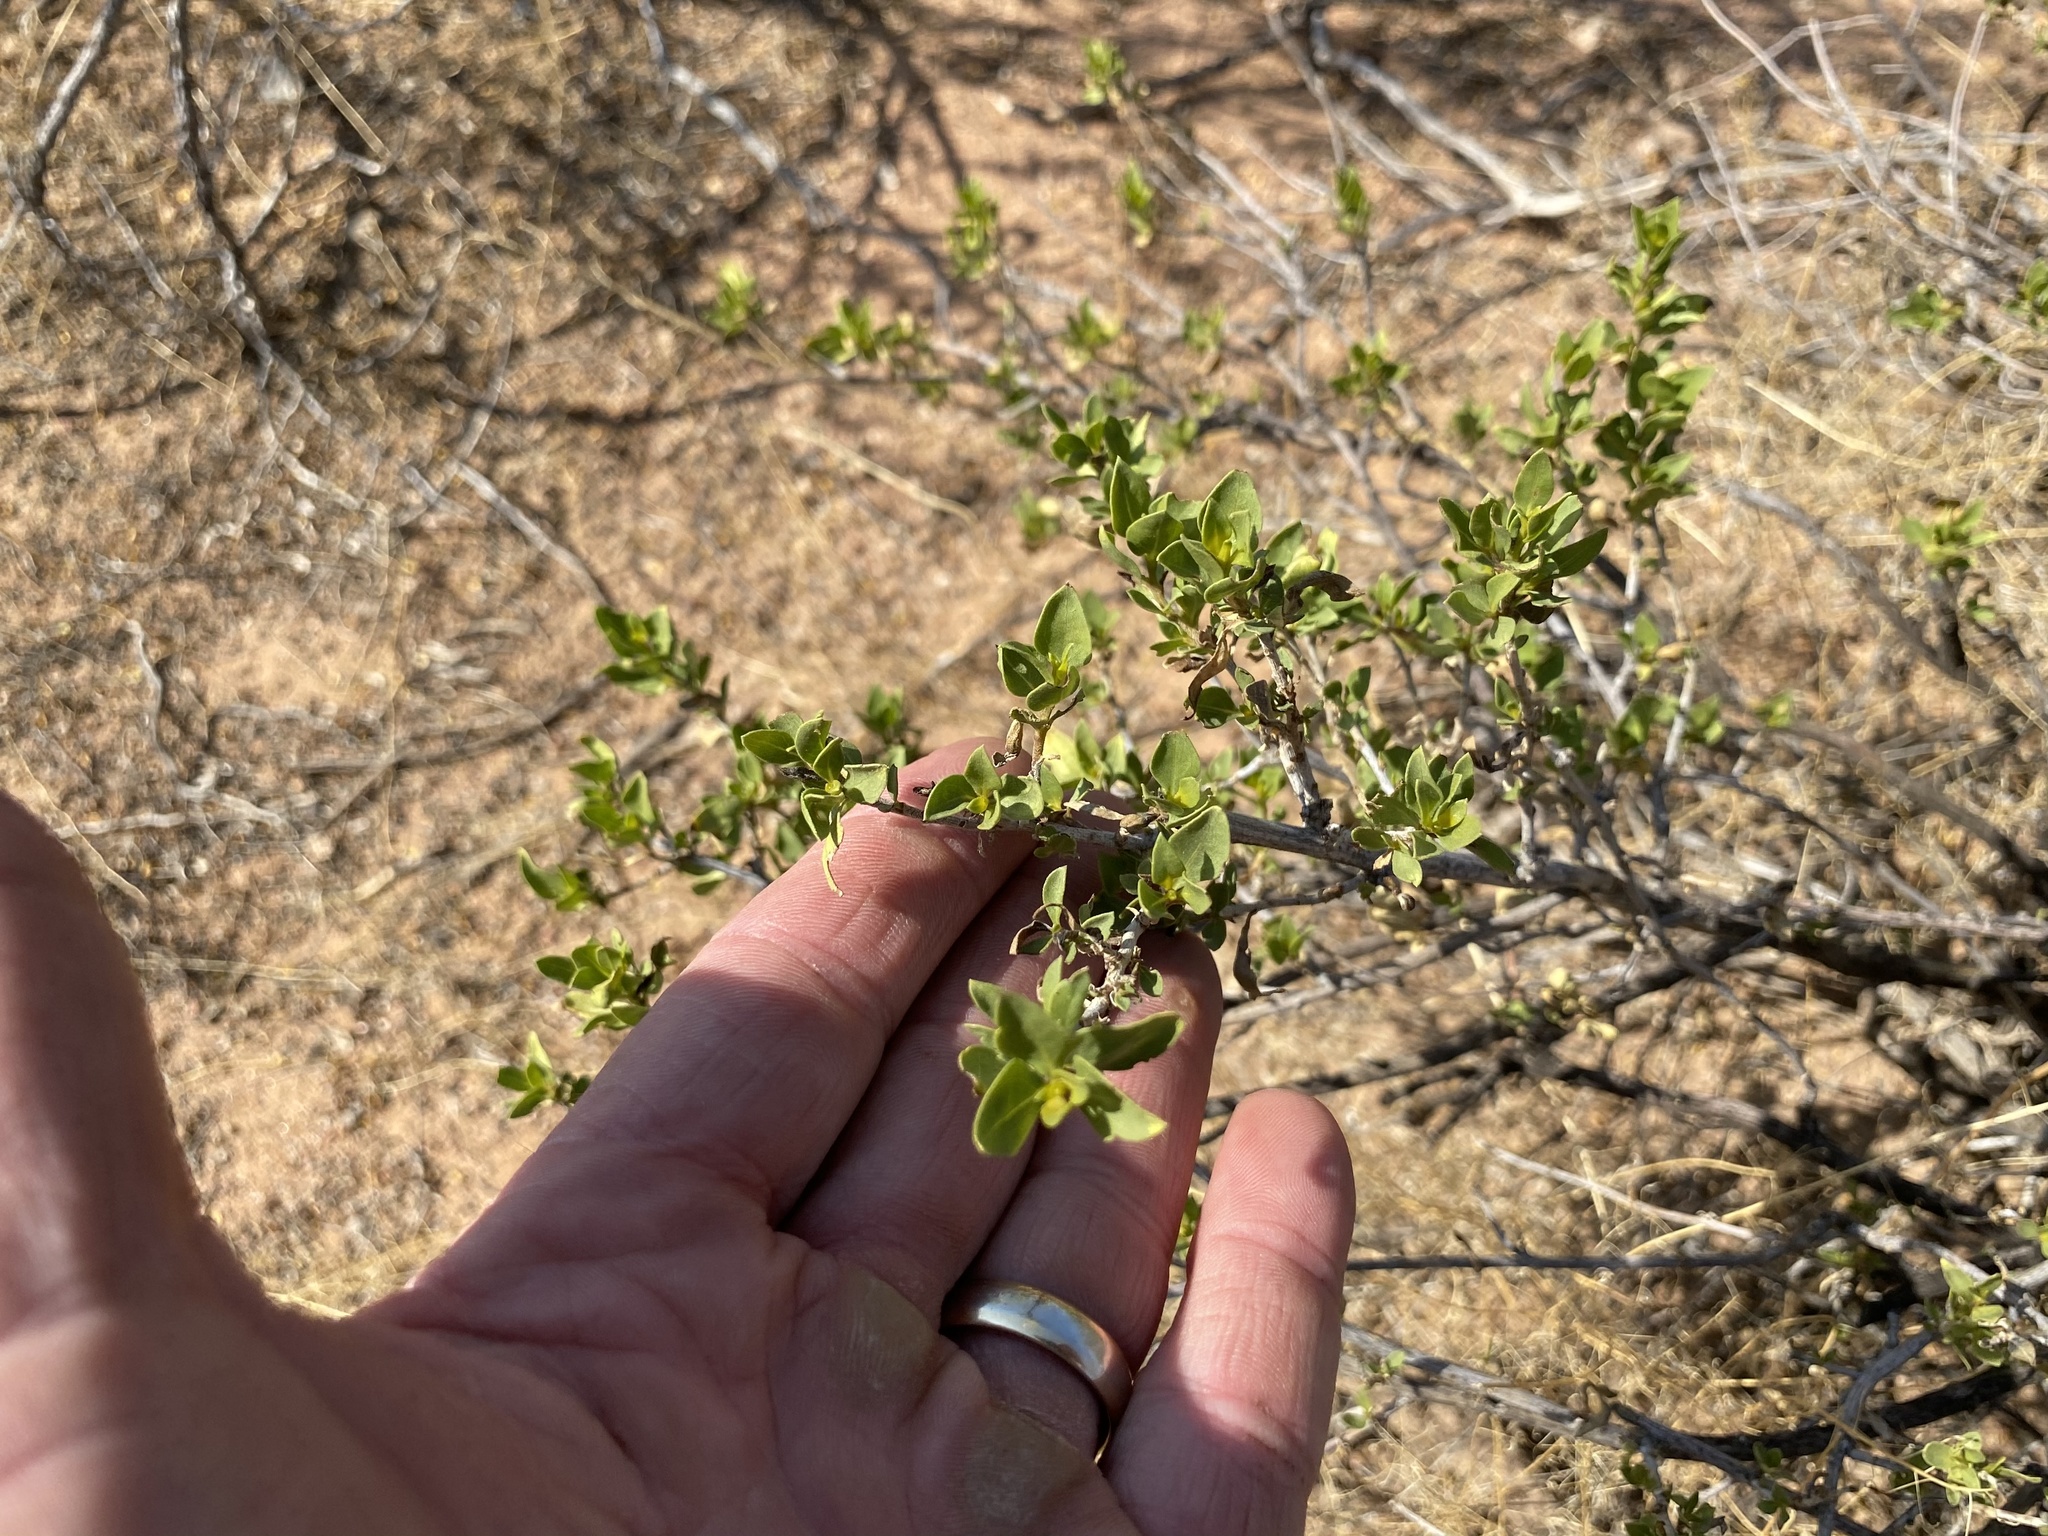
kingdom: Plantae
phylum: Tracheophyta
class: Magnoliopsida
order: Asterales
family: Asteraceae
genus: Flourensia
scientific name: Flourensia cernua
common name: Varnishbush
